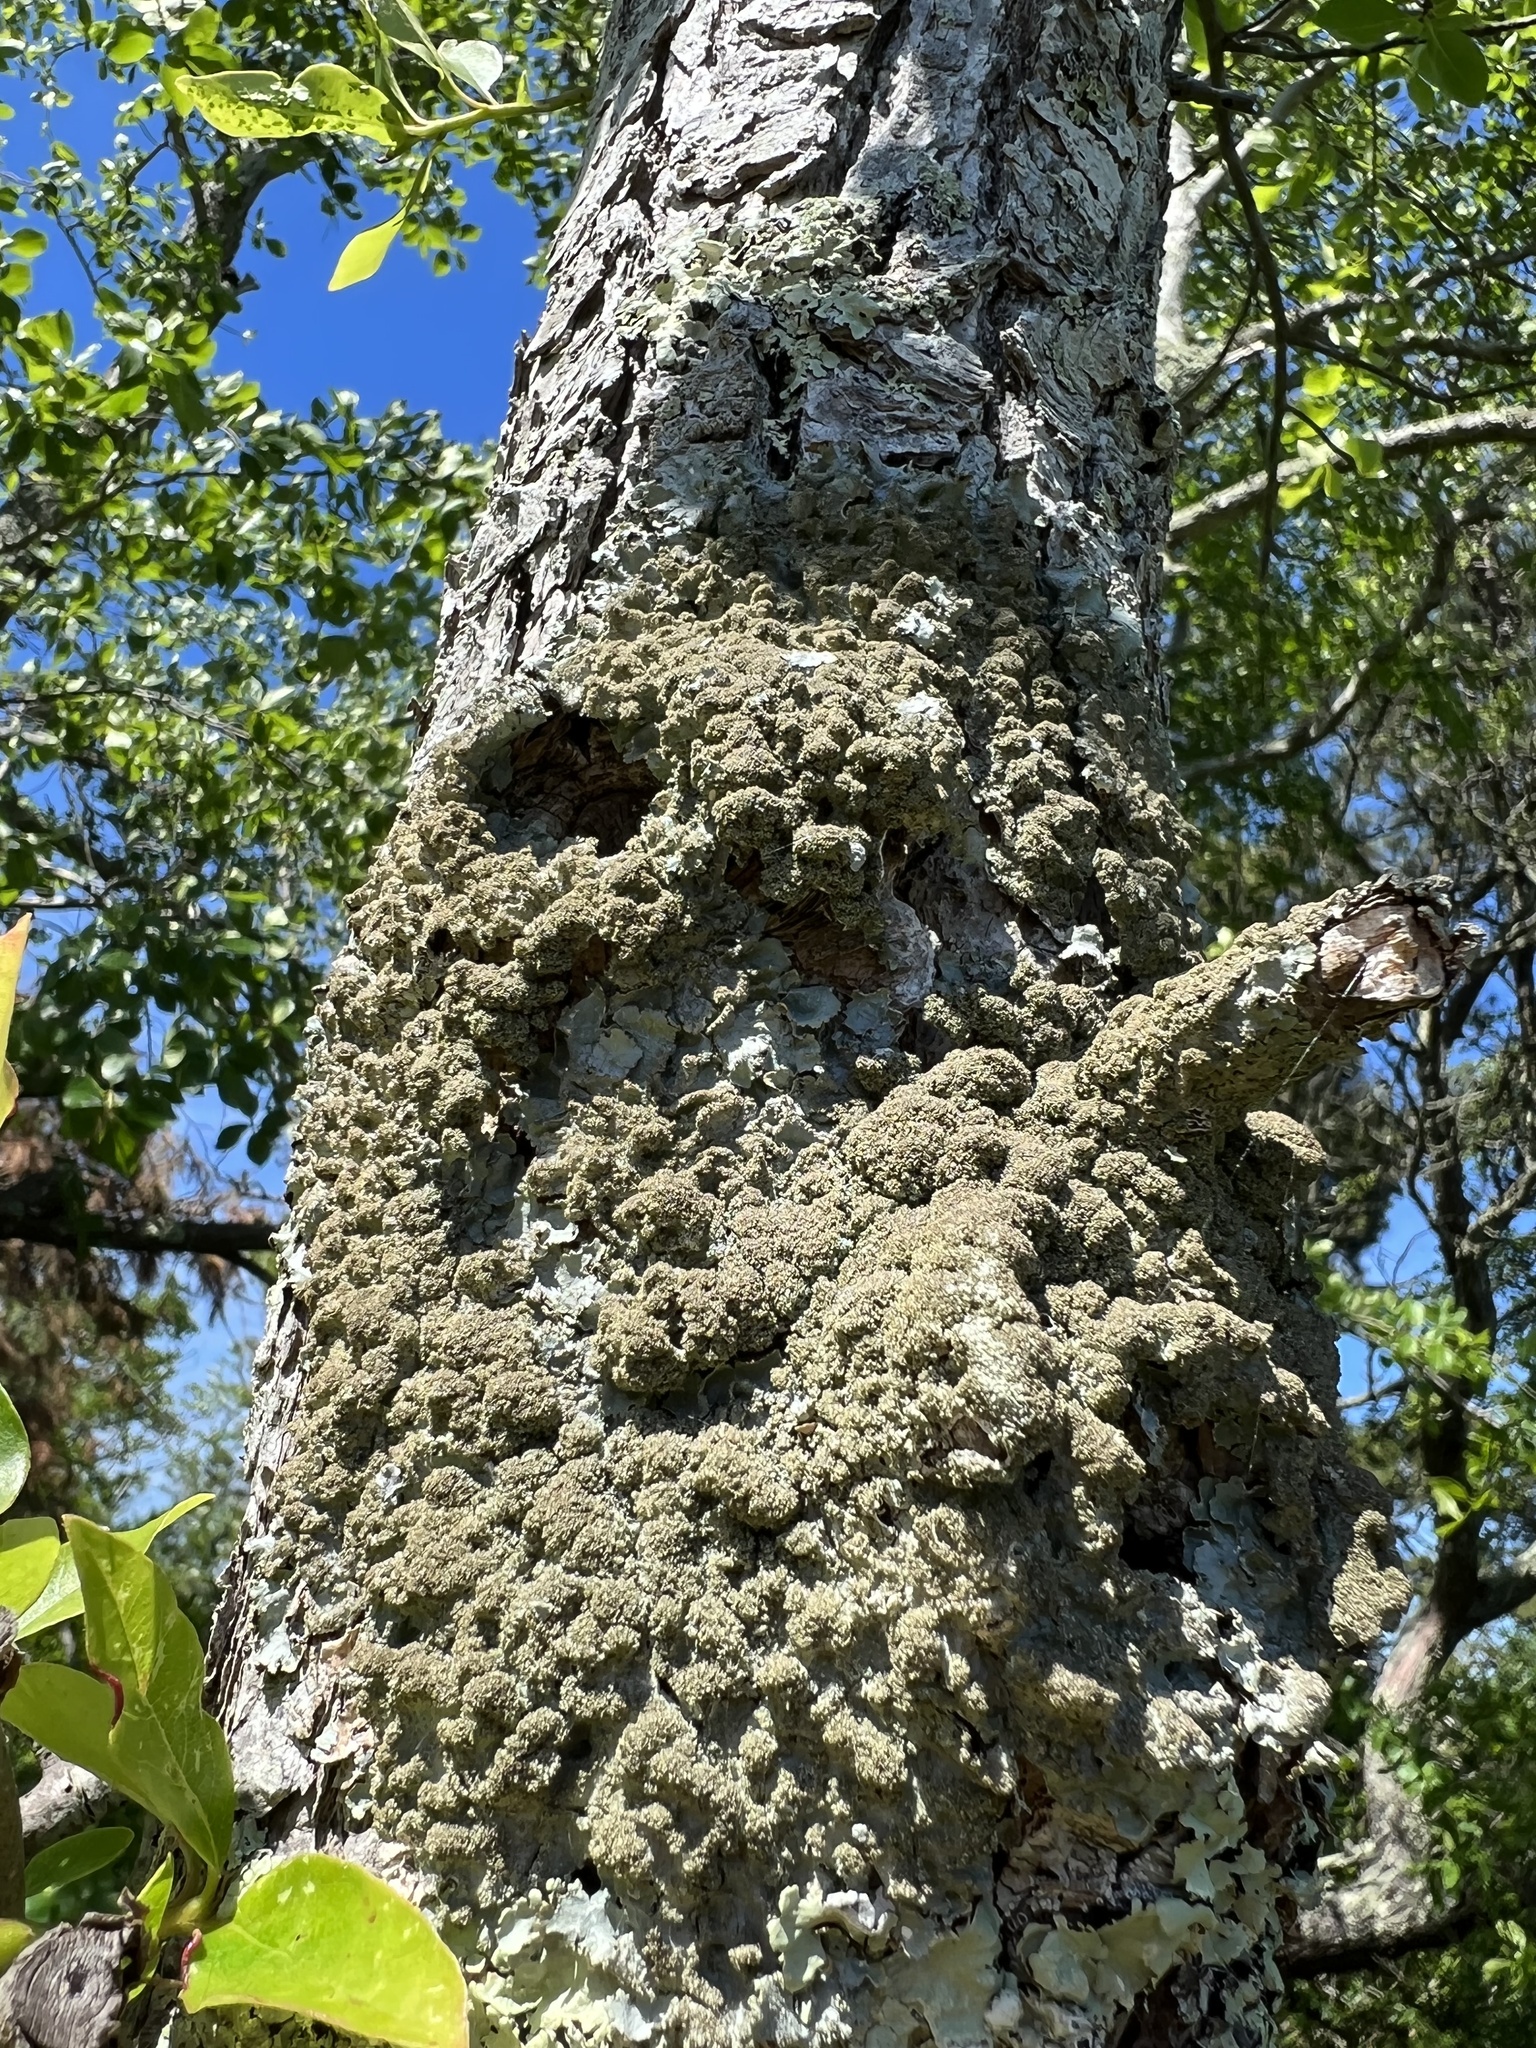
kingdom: Fungi
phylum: Ascomycota
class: Lecanoromycetes
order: Lecanorales
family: Parmeliaceae
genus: Punctelia
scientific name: Punctelia rudecta
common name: Rough speckled shield lichen
